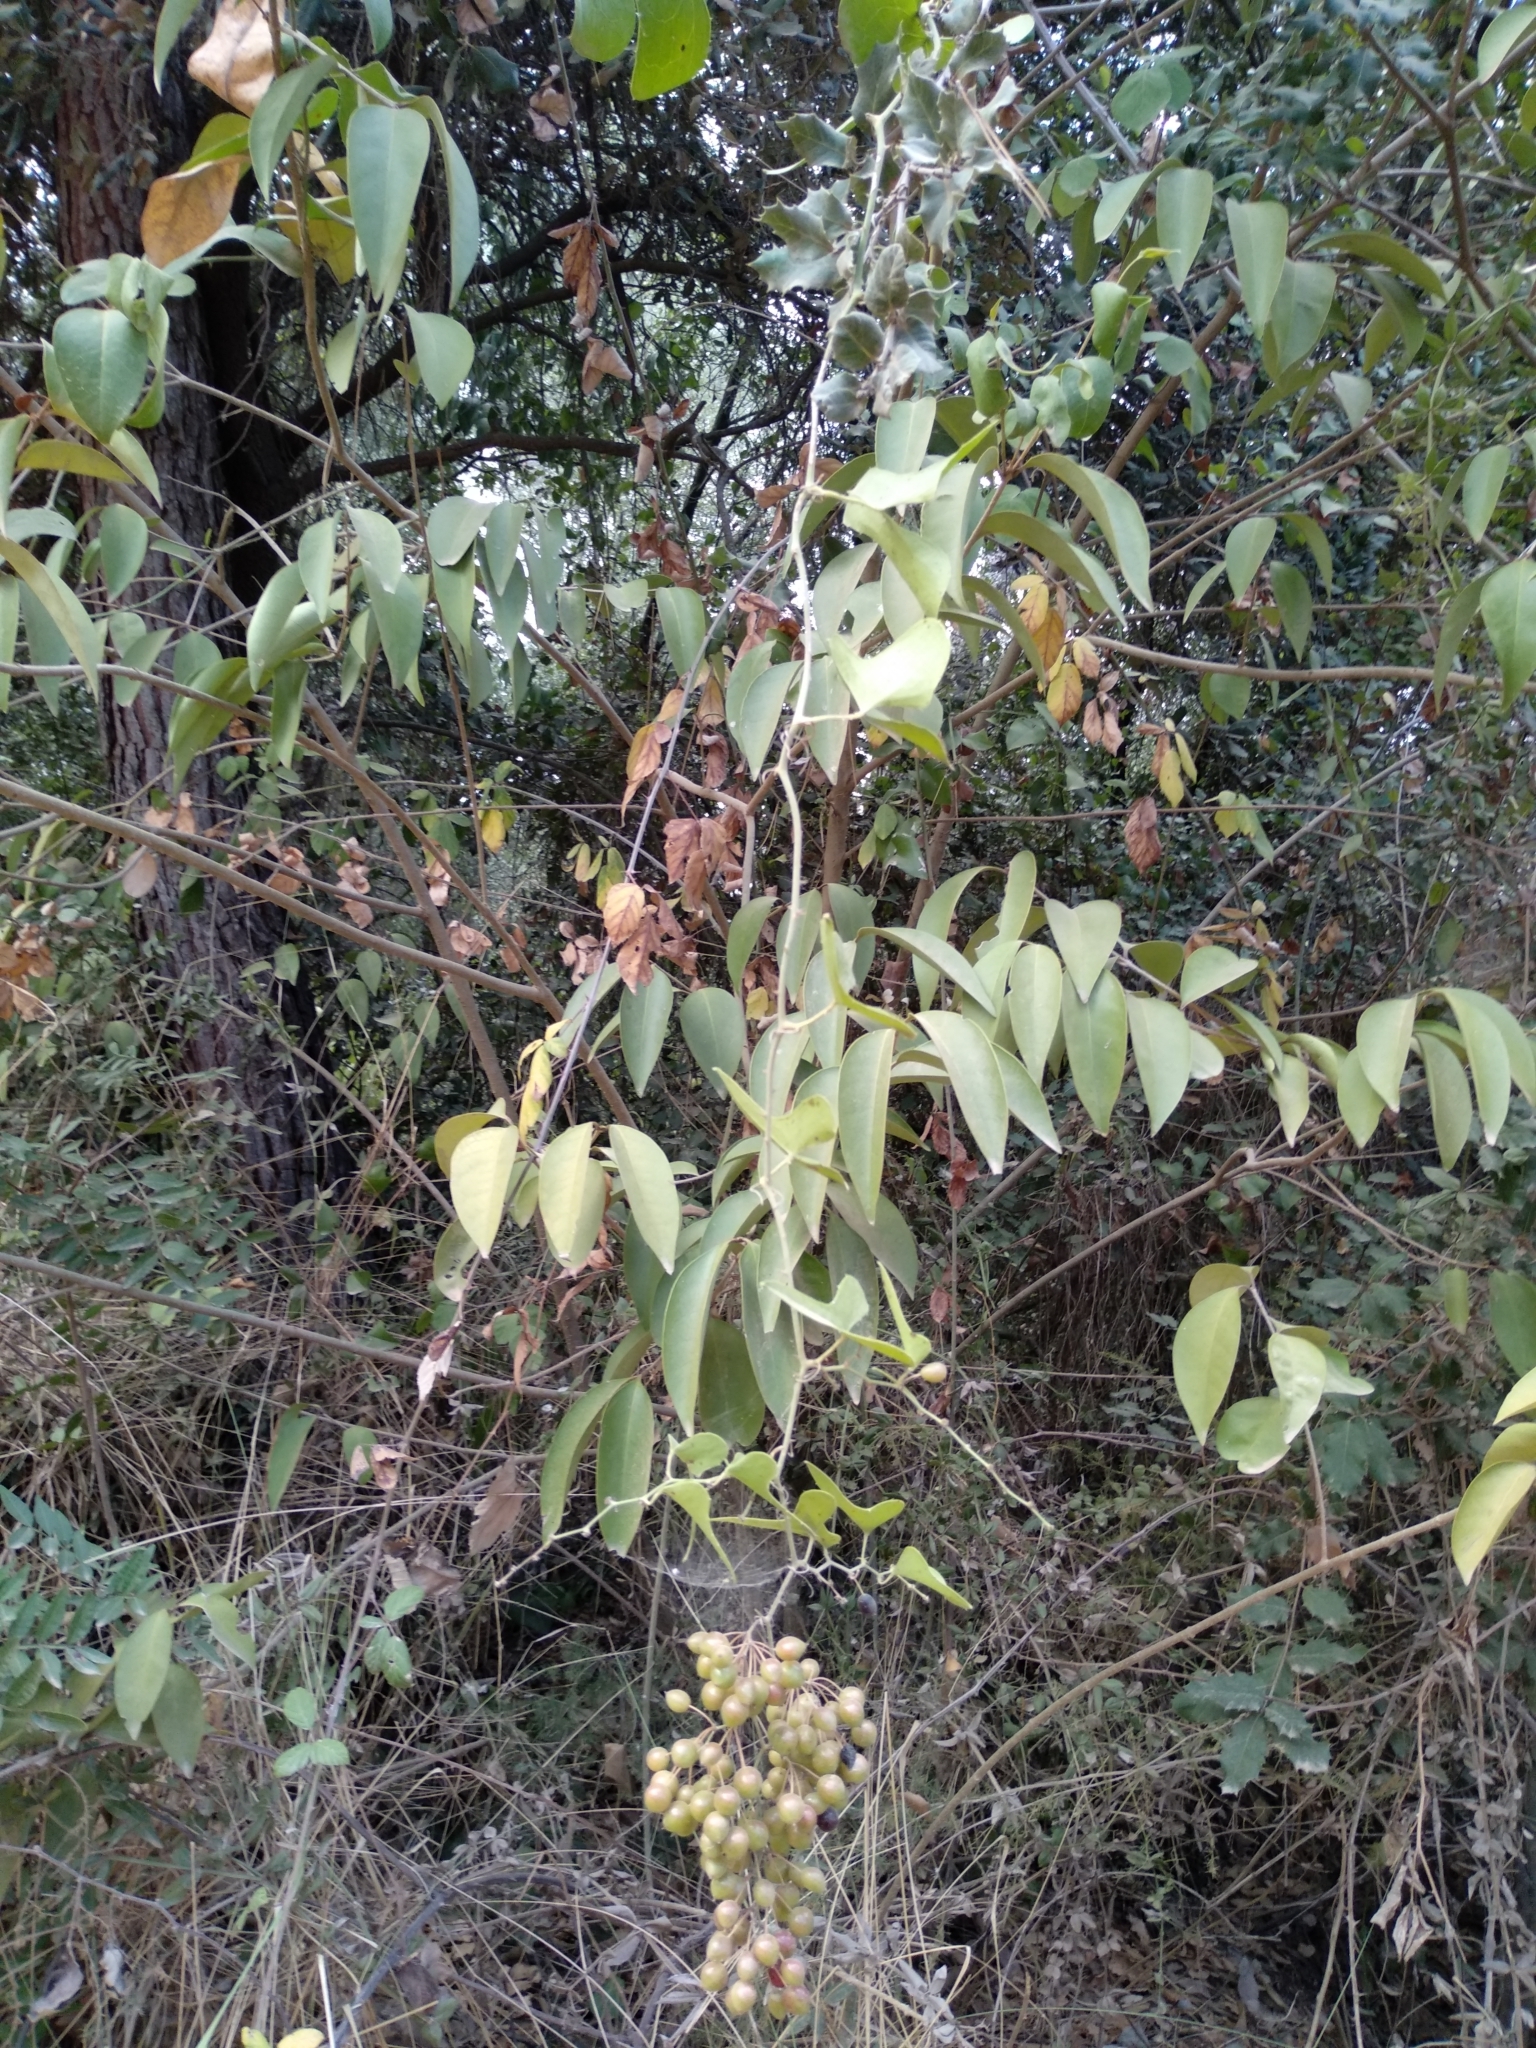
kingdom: Plantae
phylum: Tracheophyta
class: Liliopsida
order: Liliales
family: Smilacaceae
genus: Smilax
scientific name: Smilax aspera
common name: Common smilax
